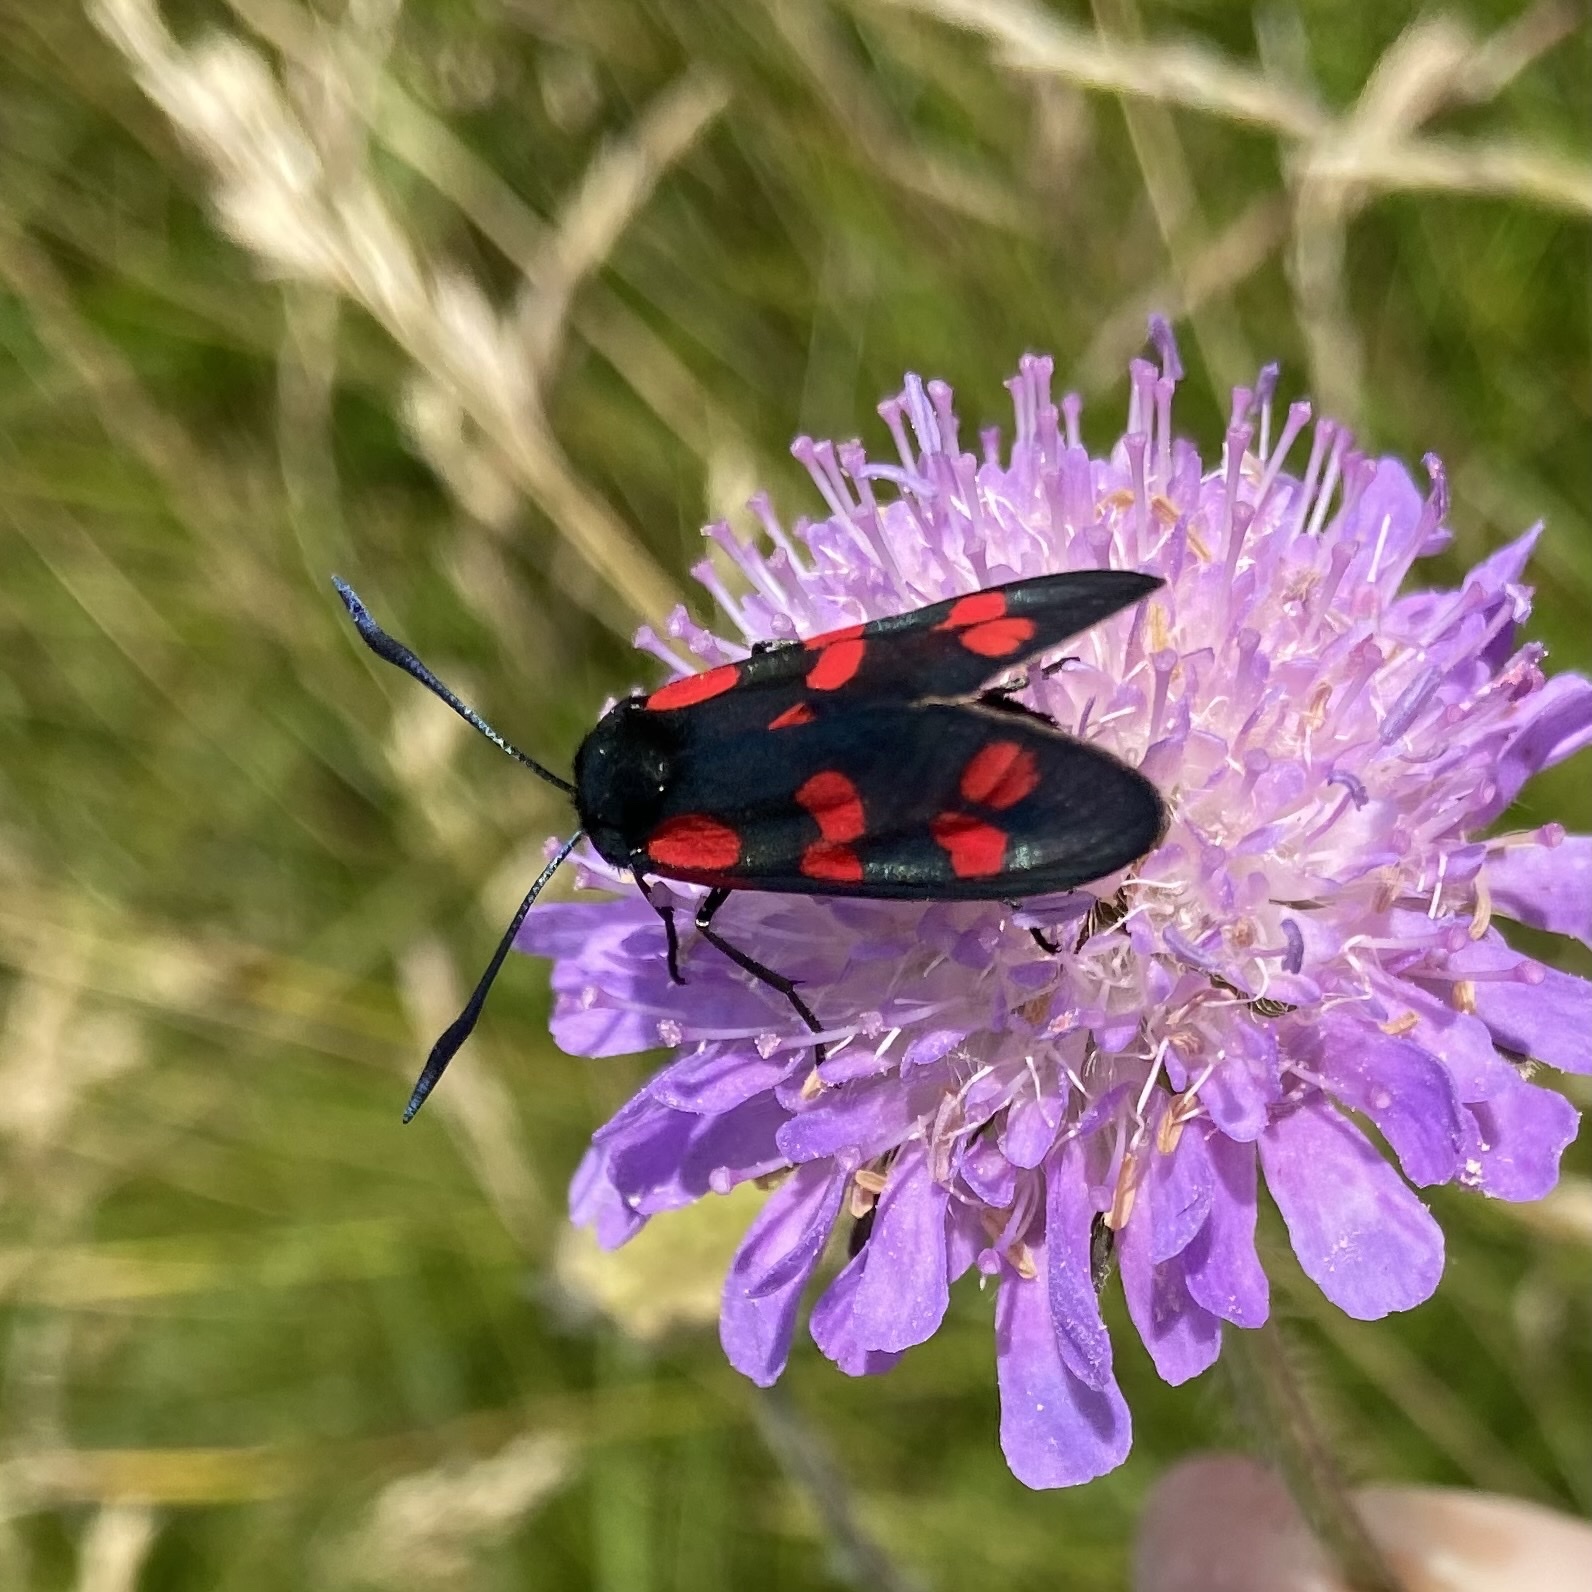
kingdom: Animalia
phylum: Arthropoda
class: Insecta
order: Lepidoptera
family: Zygaenidae
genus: Zygaena
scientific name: Zygaena filipendulae
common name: Six-spot burnet
